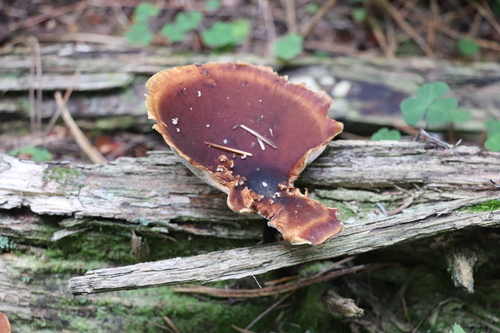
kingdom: Fungi
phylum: Basidiomycota
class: Agaricomycetes
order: Polyporales
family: Polyporaceae
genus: Picipes
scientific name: Picipes badius
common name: Bay polypore
